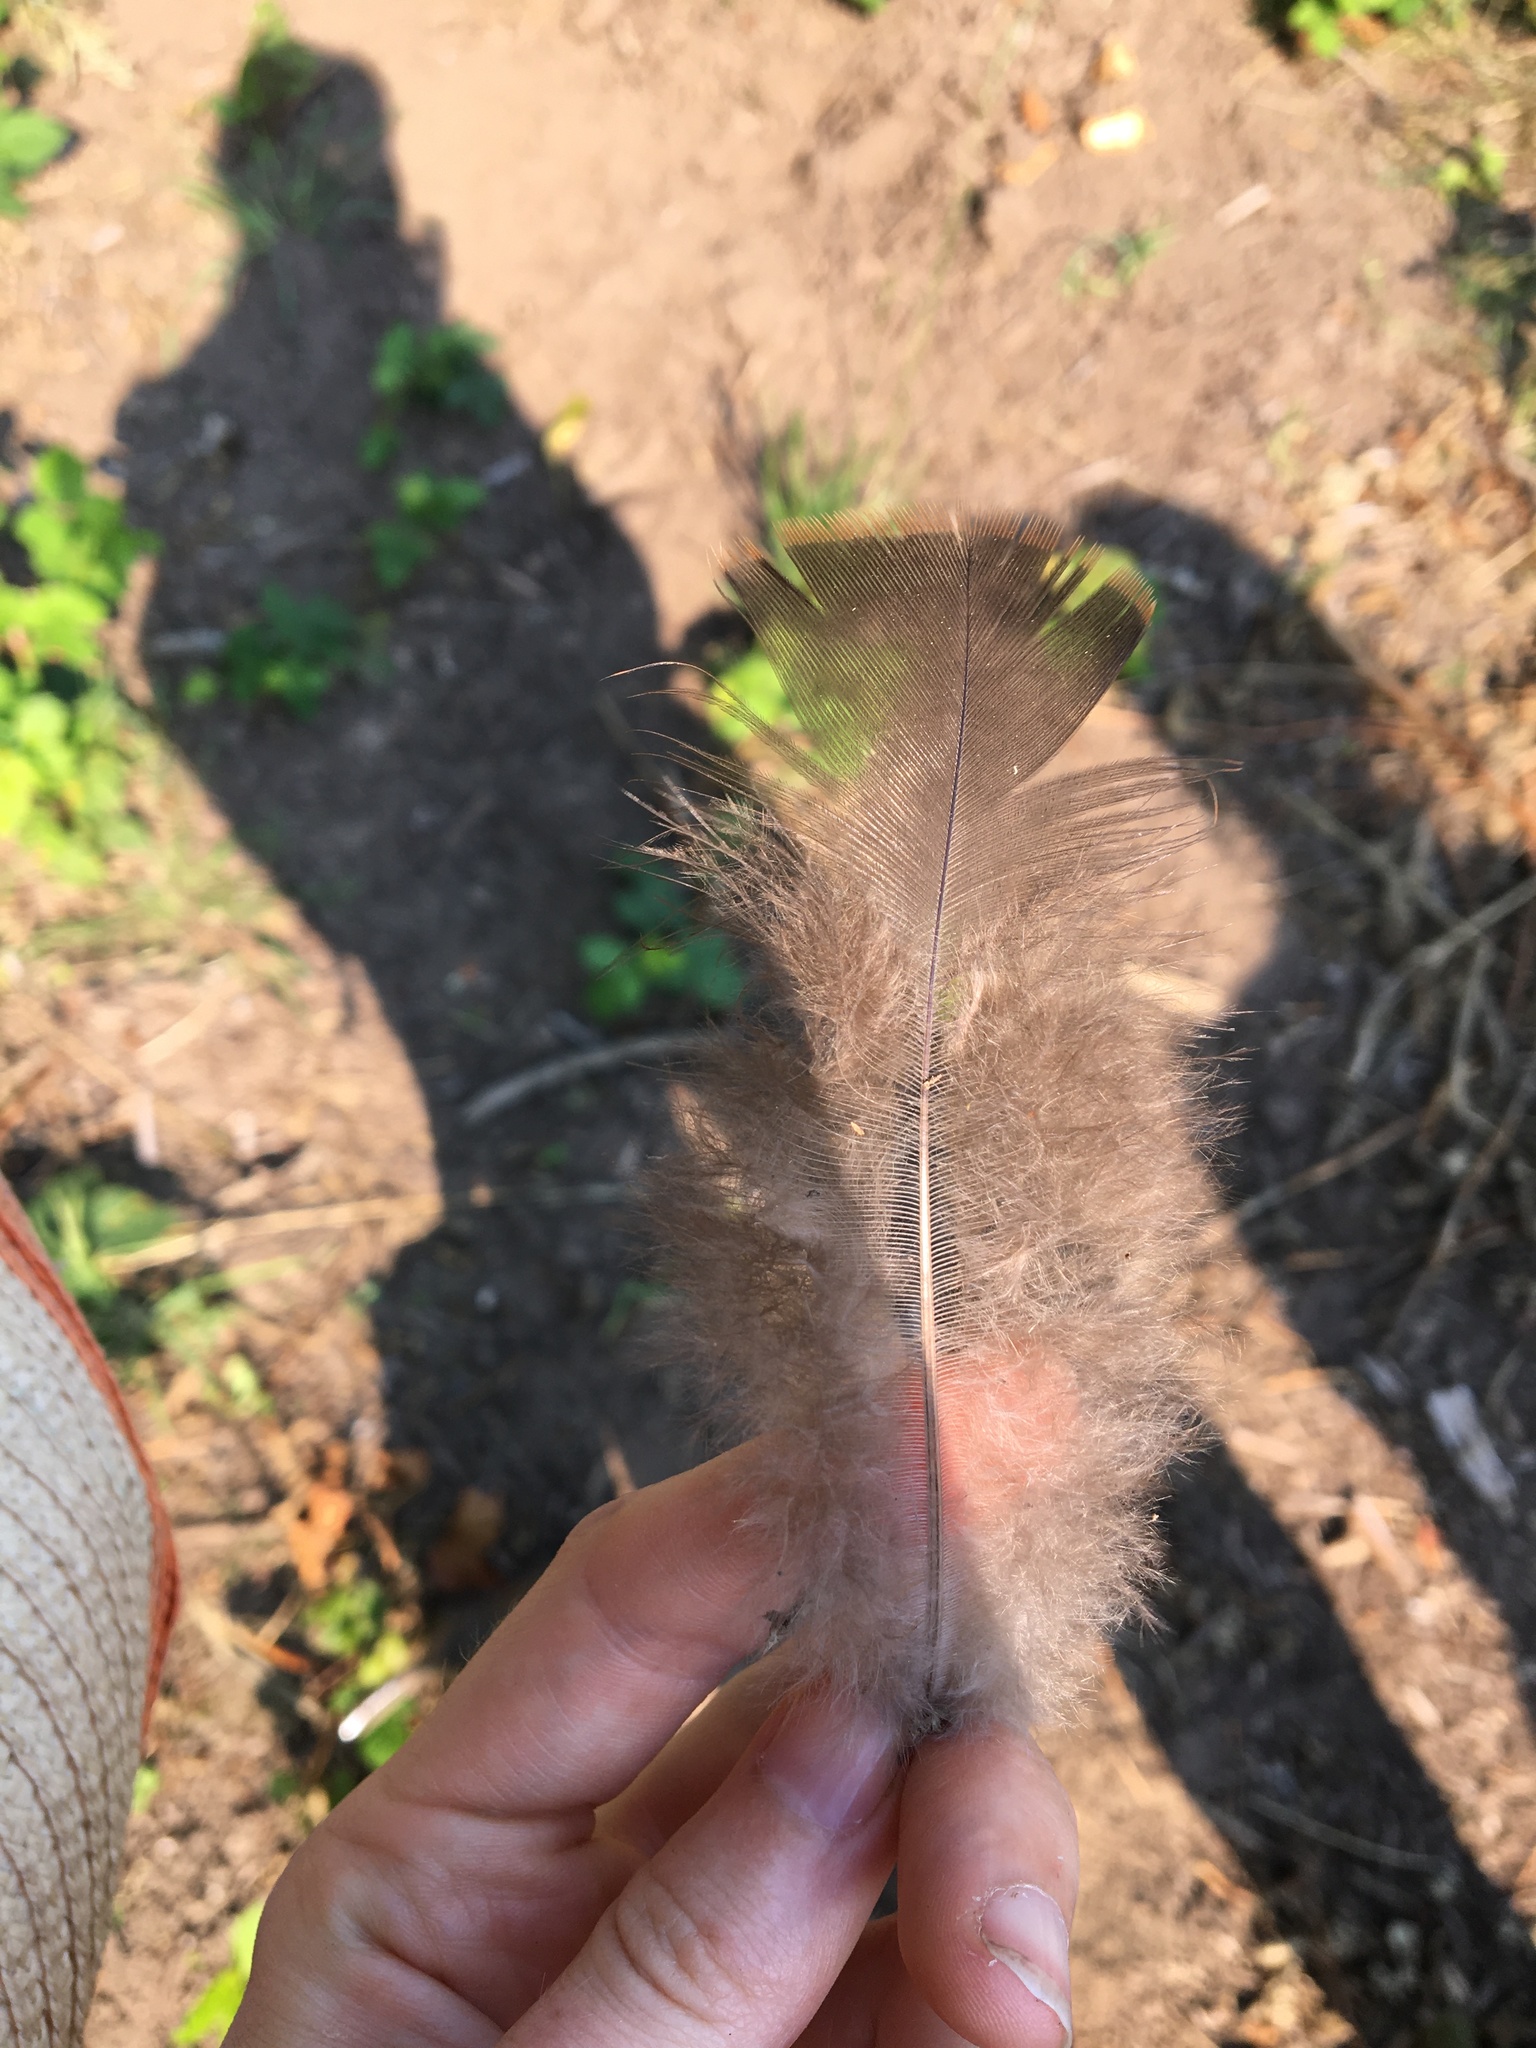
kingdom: Animalia
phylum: Chordata
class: Aves
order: Galliformes
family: Phasianidae
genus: Meleagris
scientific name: Meleagris gallopavo
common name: Wild turkey
